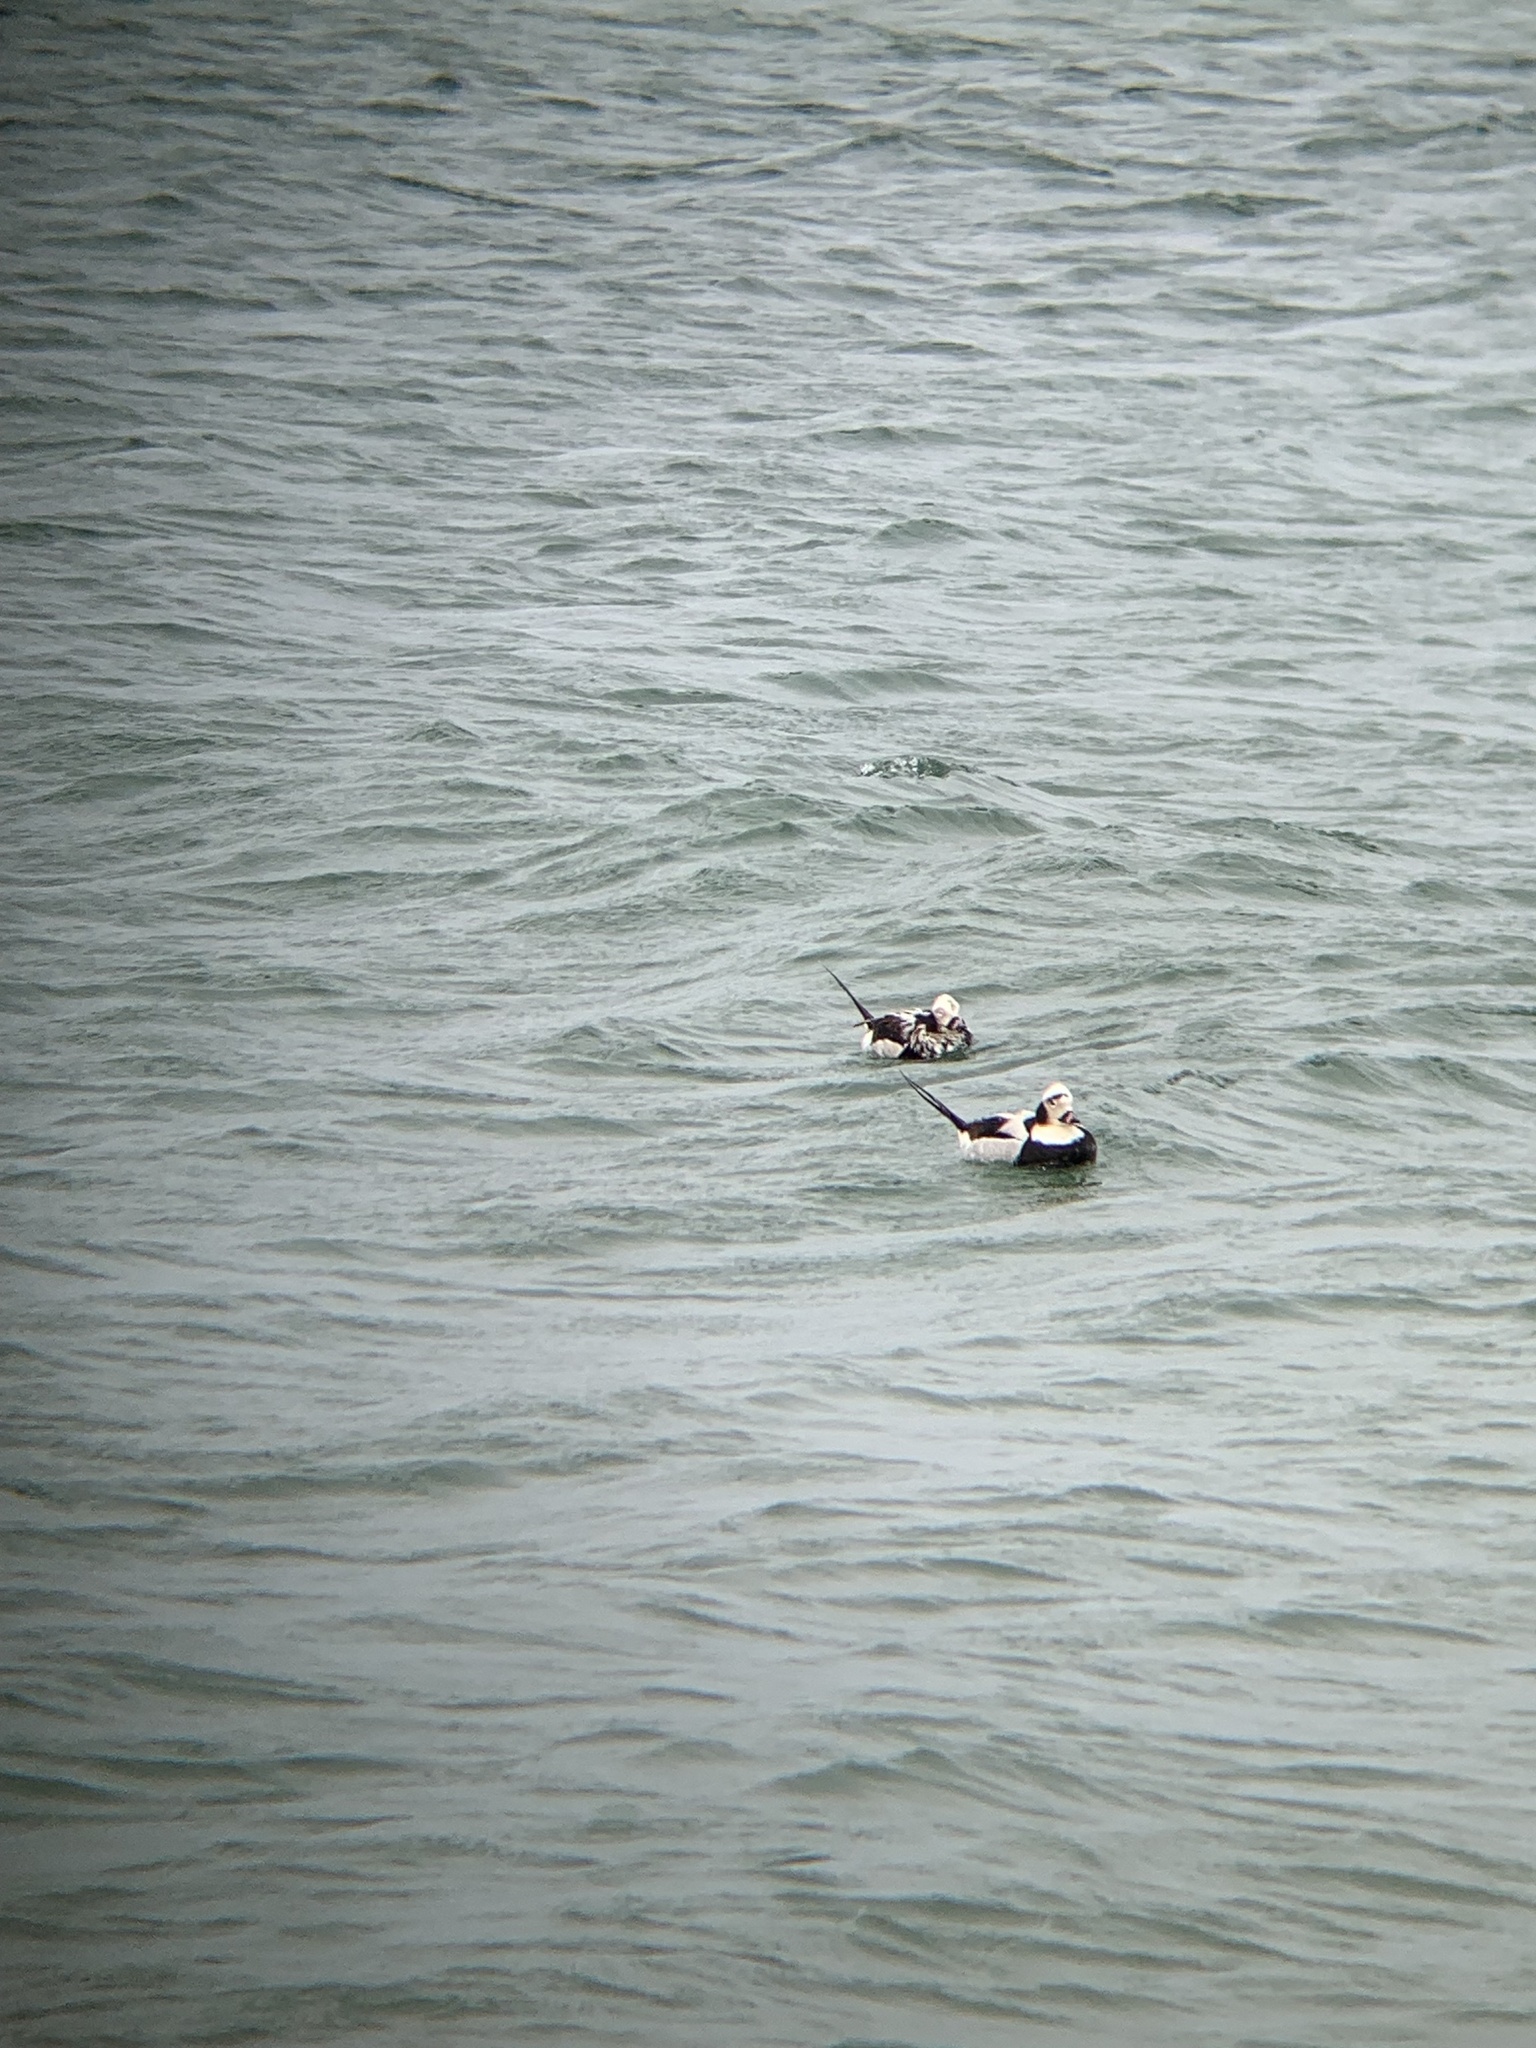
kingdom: Animalia
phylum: Chordata
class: Aves
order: Anseriformes
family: Anatidae
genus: Clangula
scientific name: Clangula hyemalis
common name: Long-tailed duck
